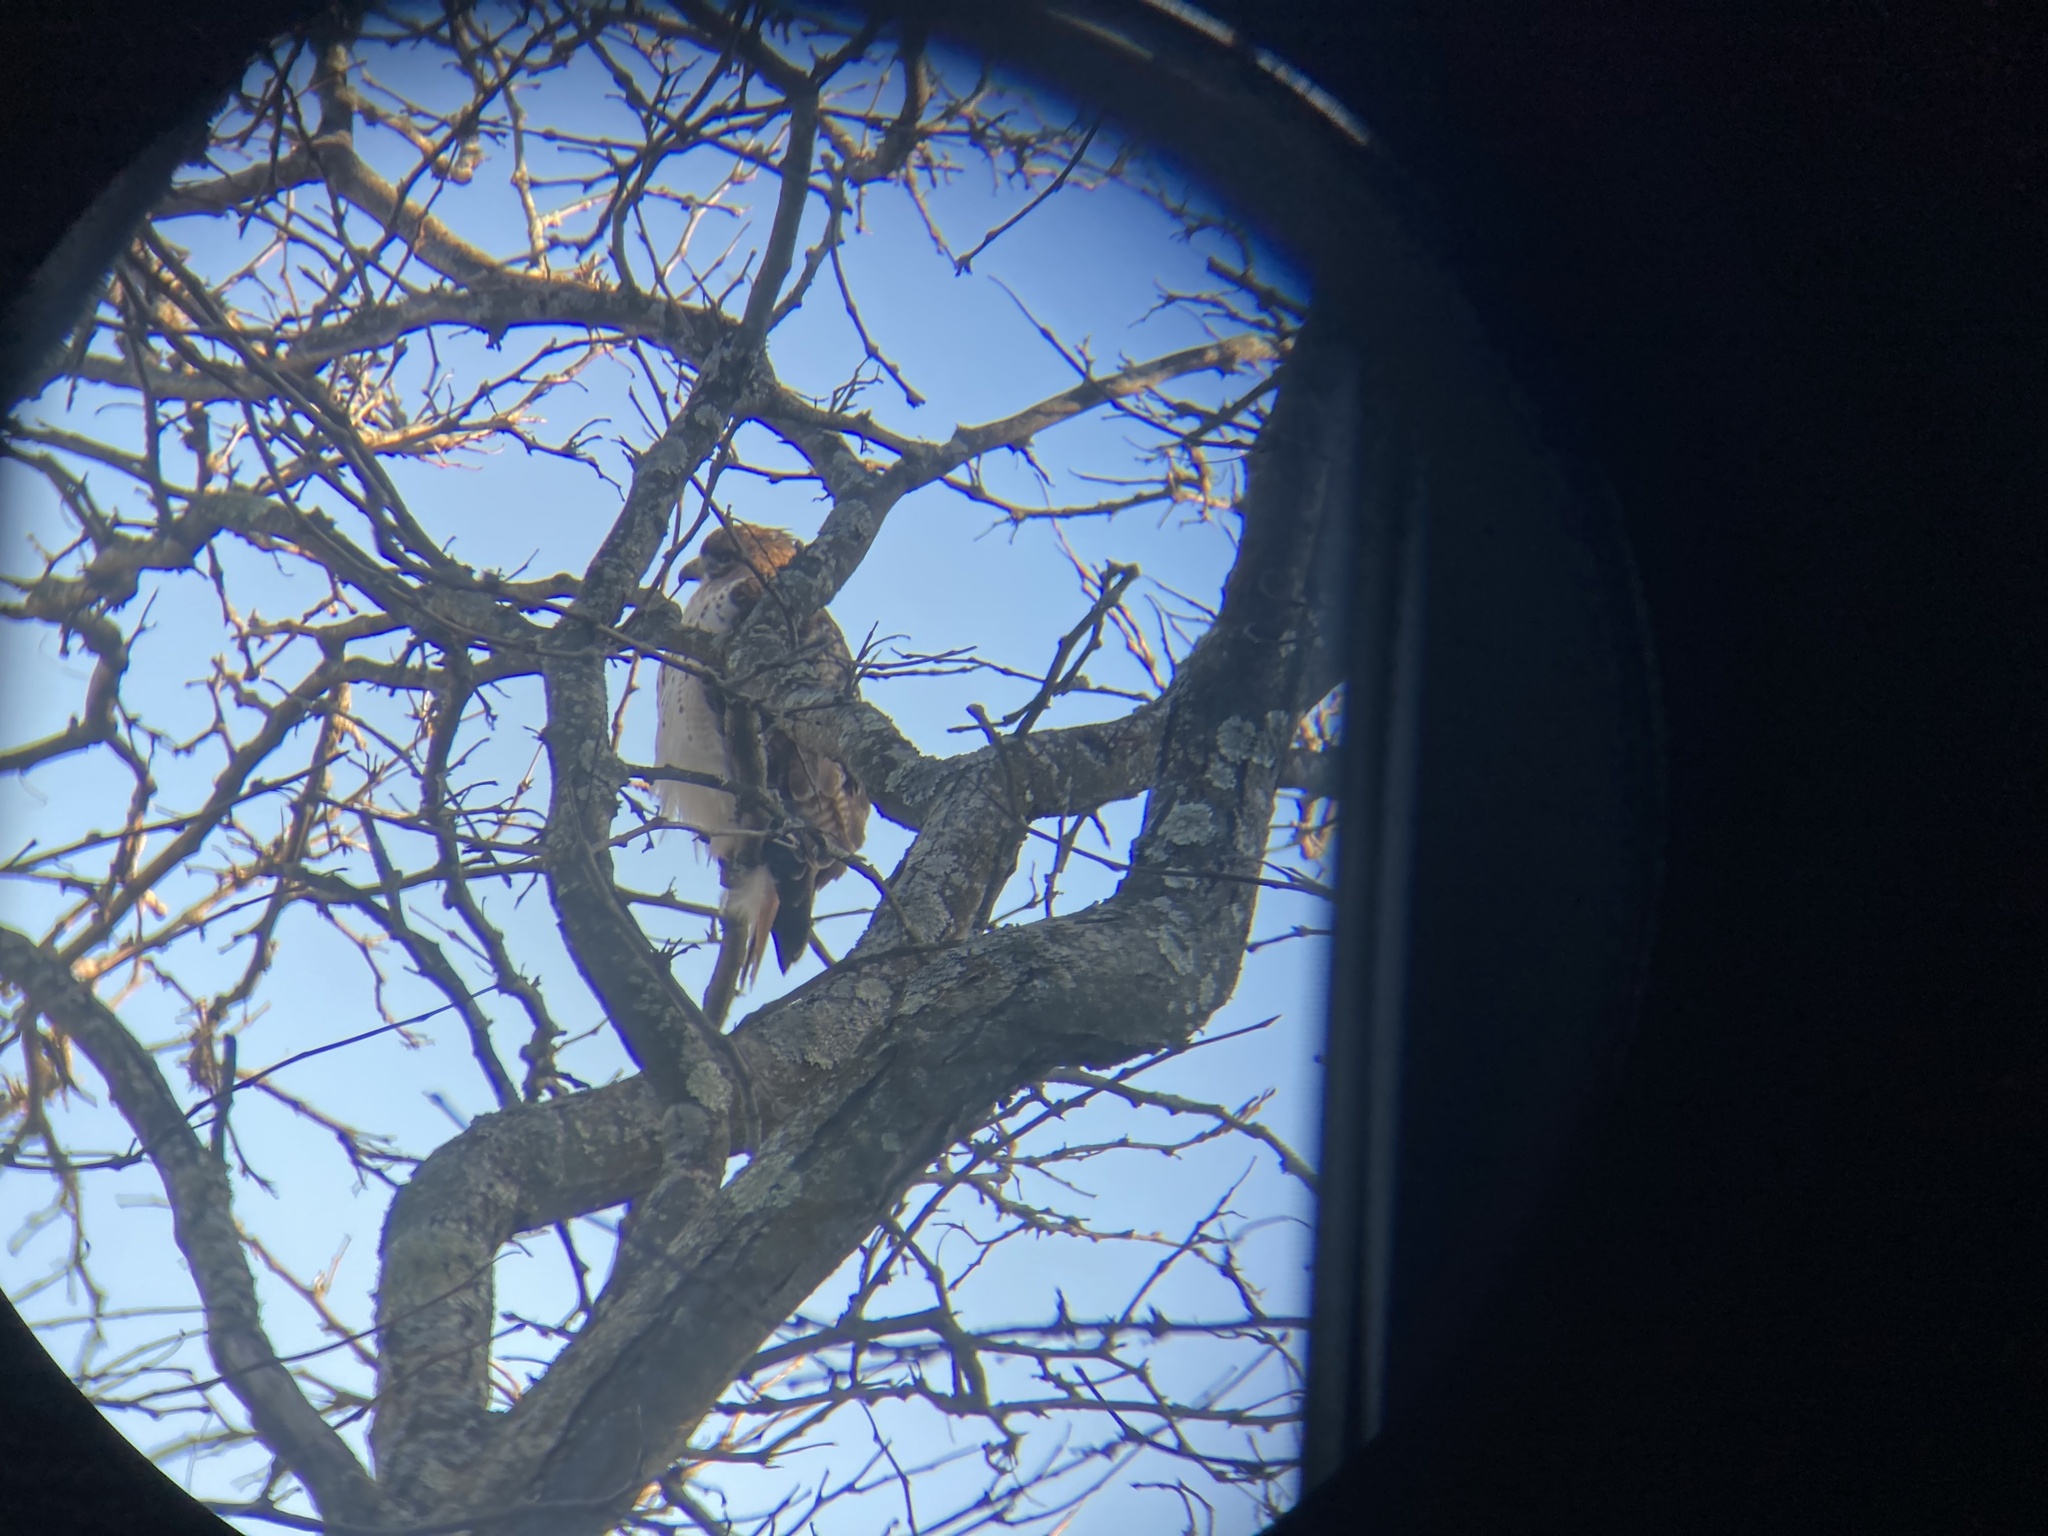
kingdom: Animalia
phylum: Chordata
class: Aves
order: Accipitriformes
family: Accipitridae
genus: Buteo
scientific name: Buteo jamaicensis
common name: Red-tailed hawk
